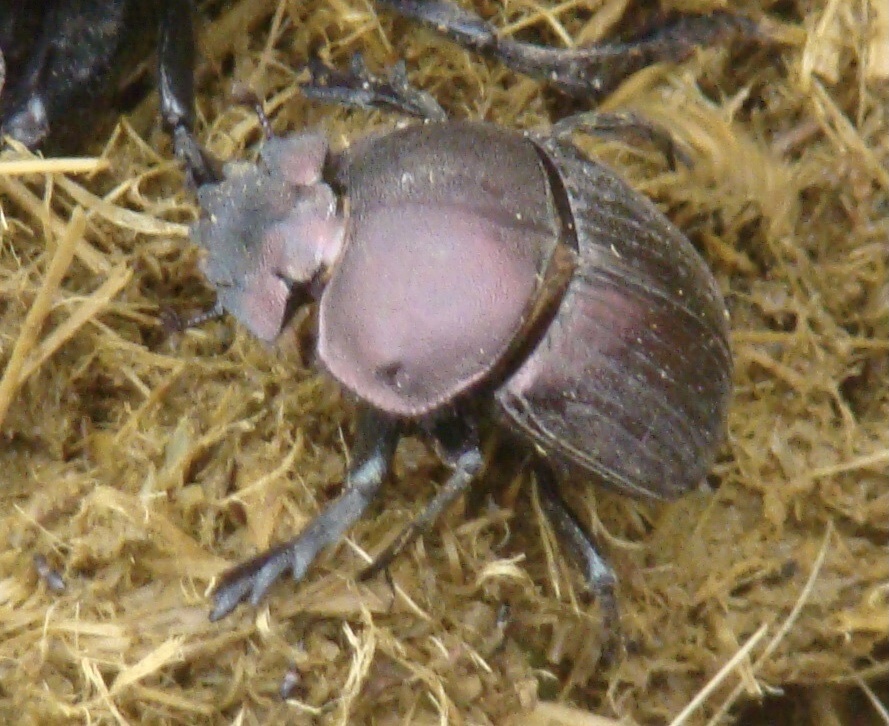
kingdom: Animalia
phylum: Arthropoda
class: Insecta
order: Coleoptera
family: Scarabaeidae
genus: Kheper
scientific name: Kheper nigroaeneus
